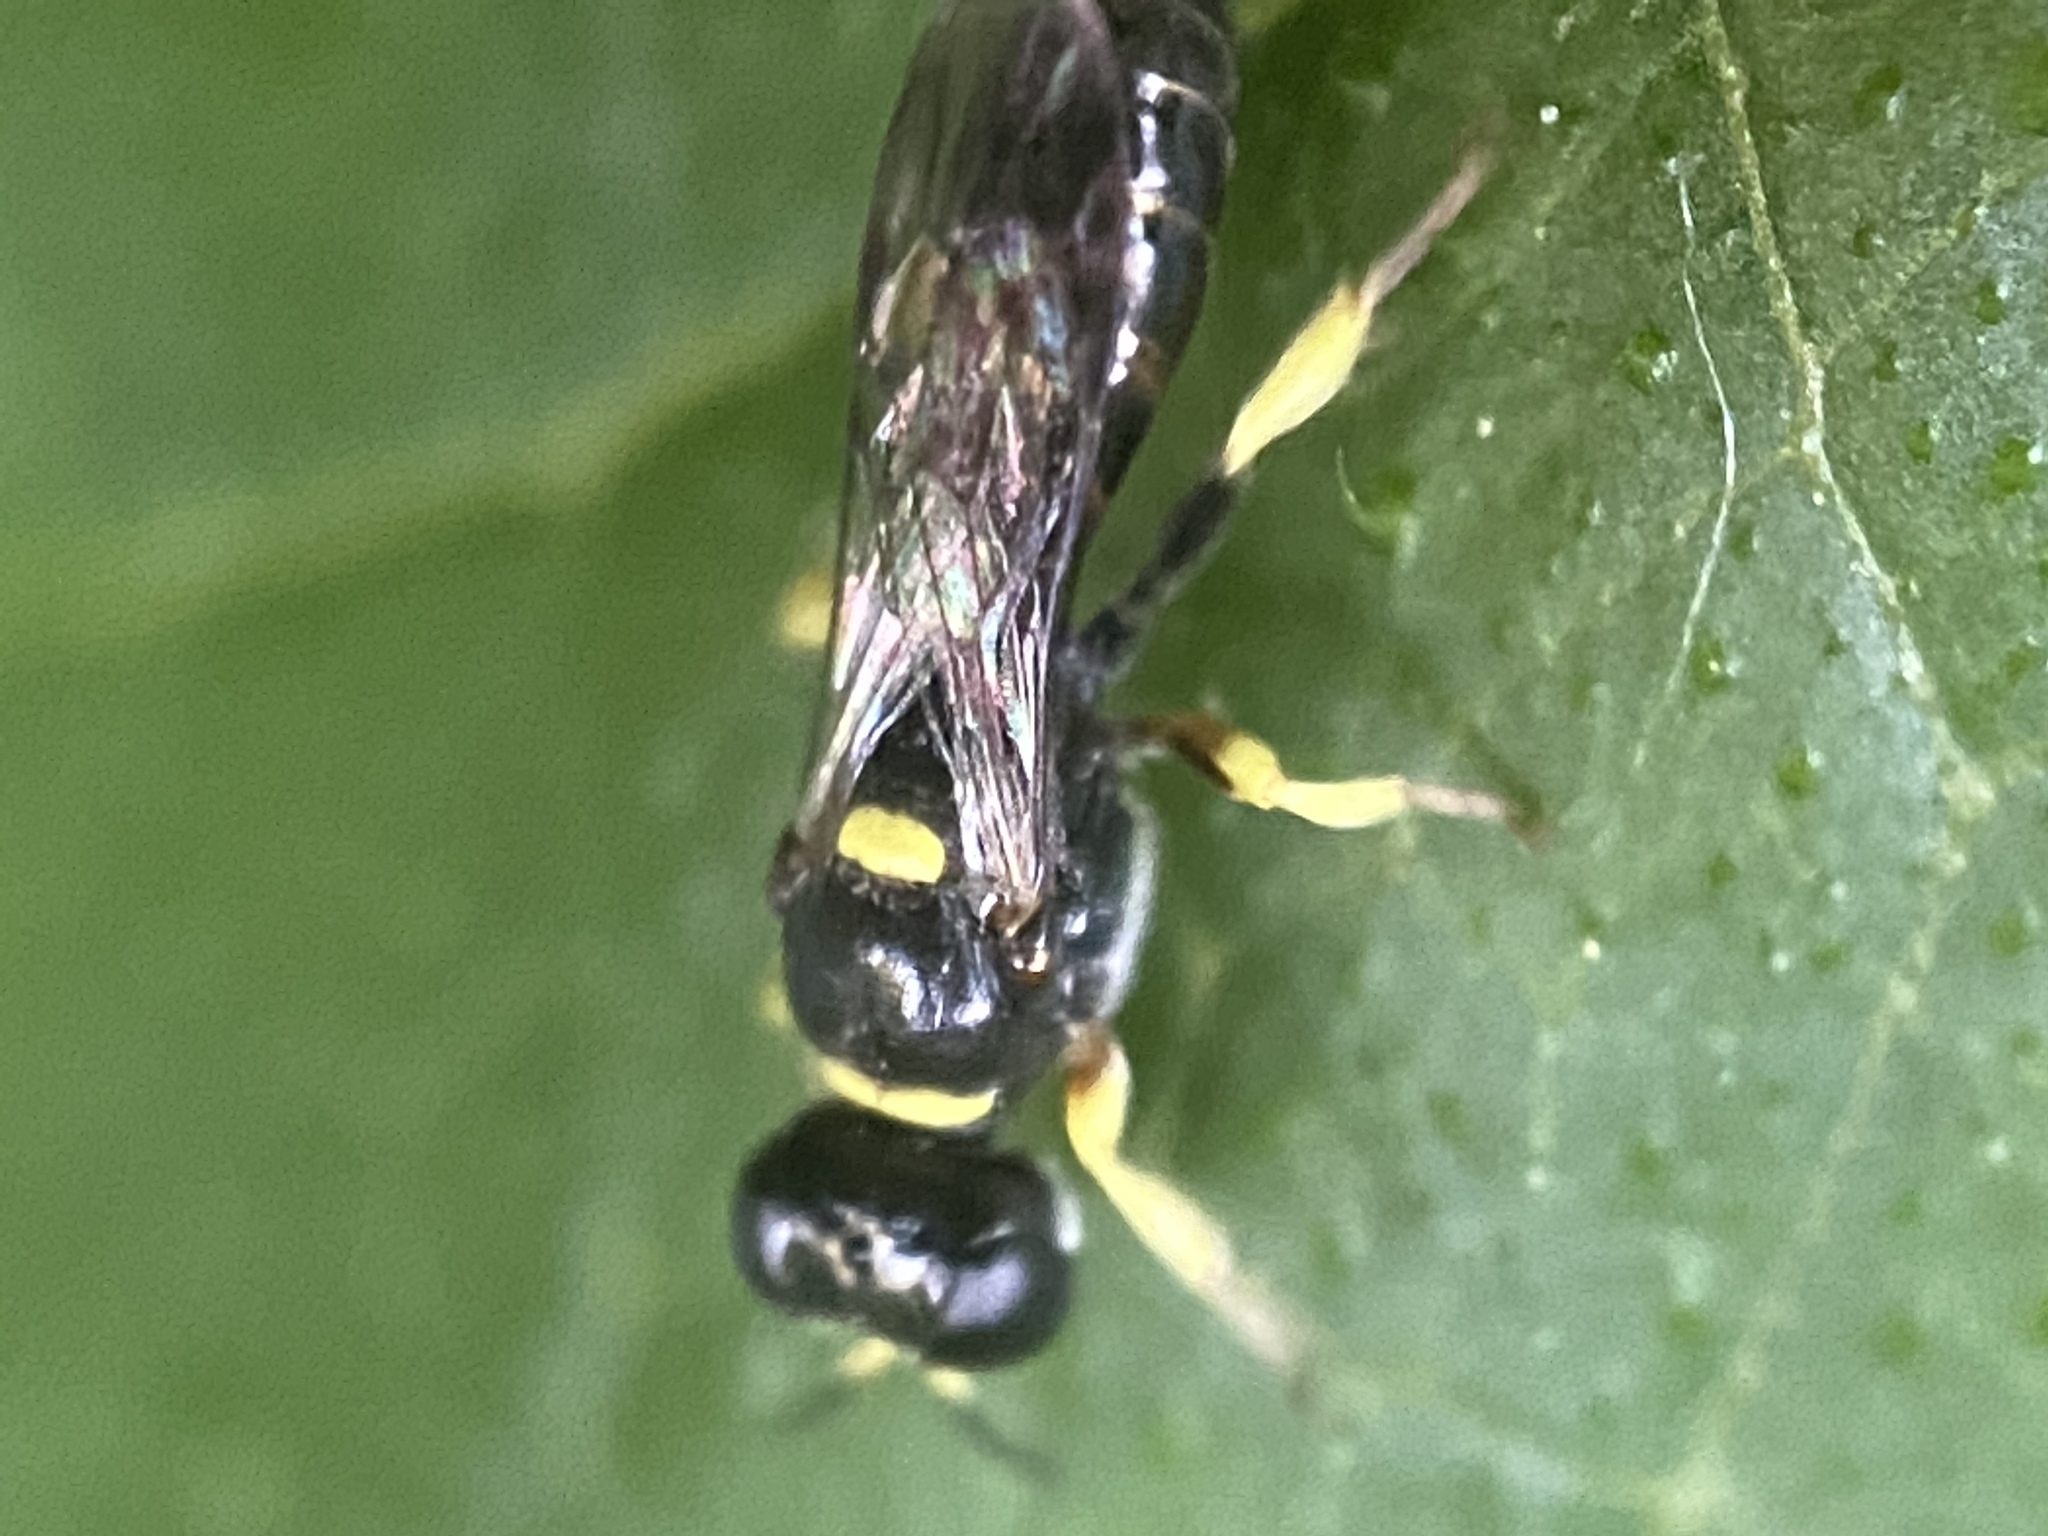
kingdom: Animalia
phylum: Arthropoda
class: Insecta
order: Hymenoptera
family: Crabronidae
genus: Crossocerus
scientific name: Crossocerus impressifrons
